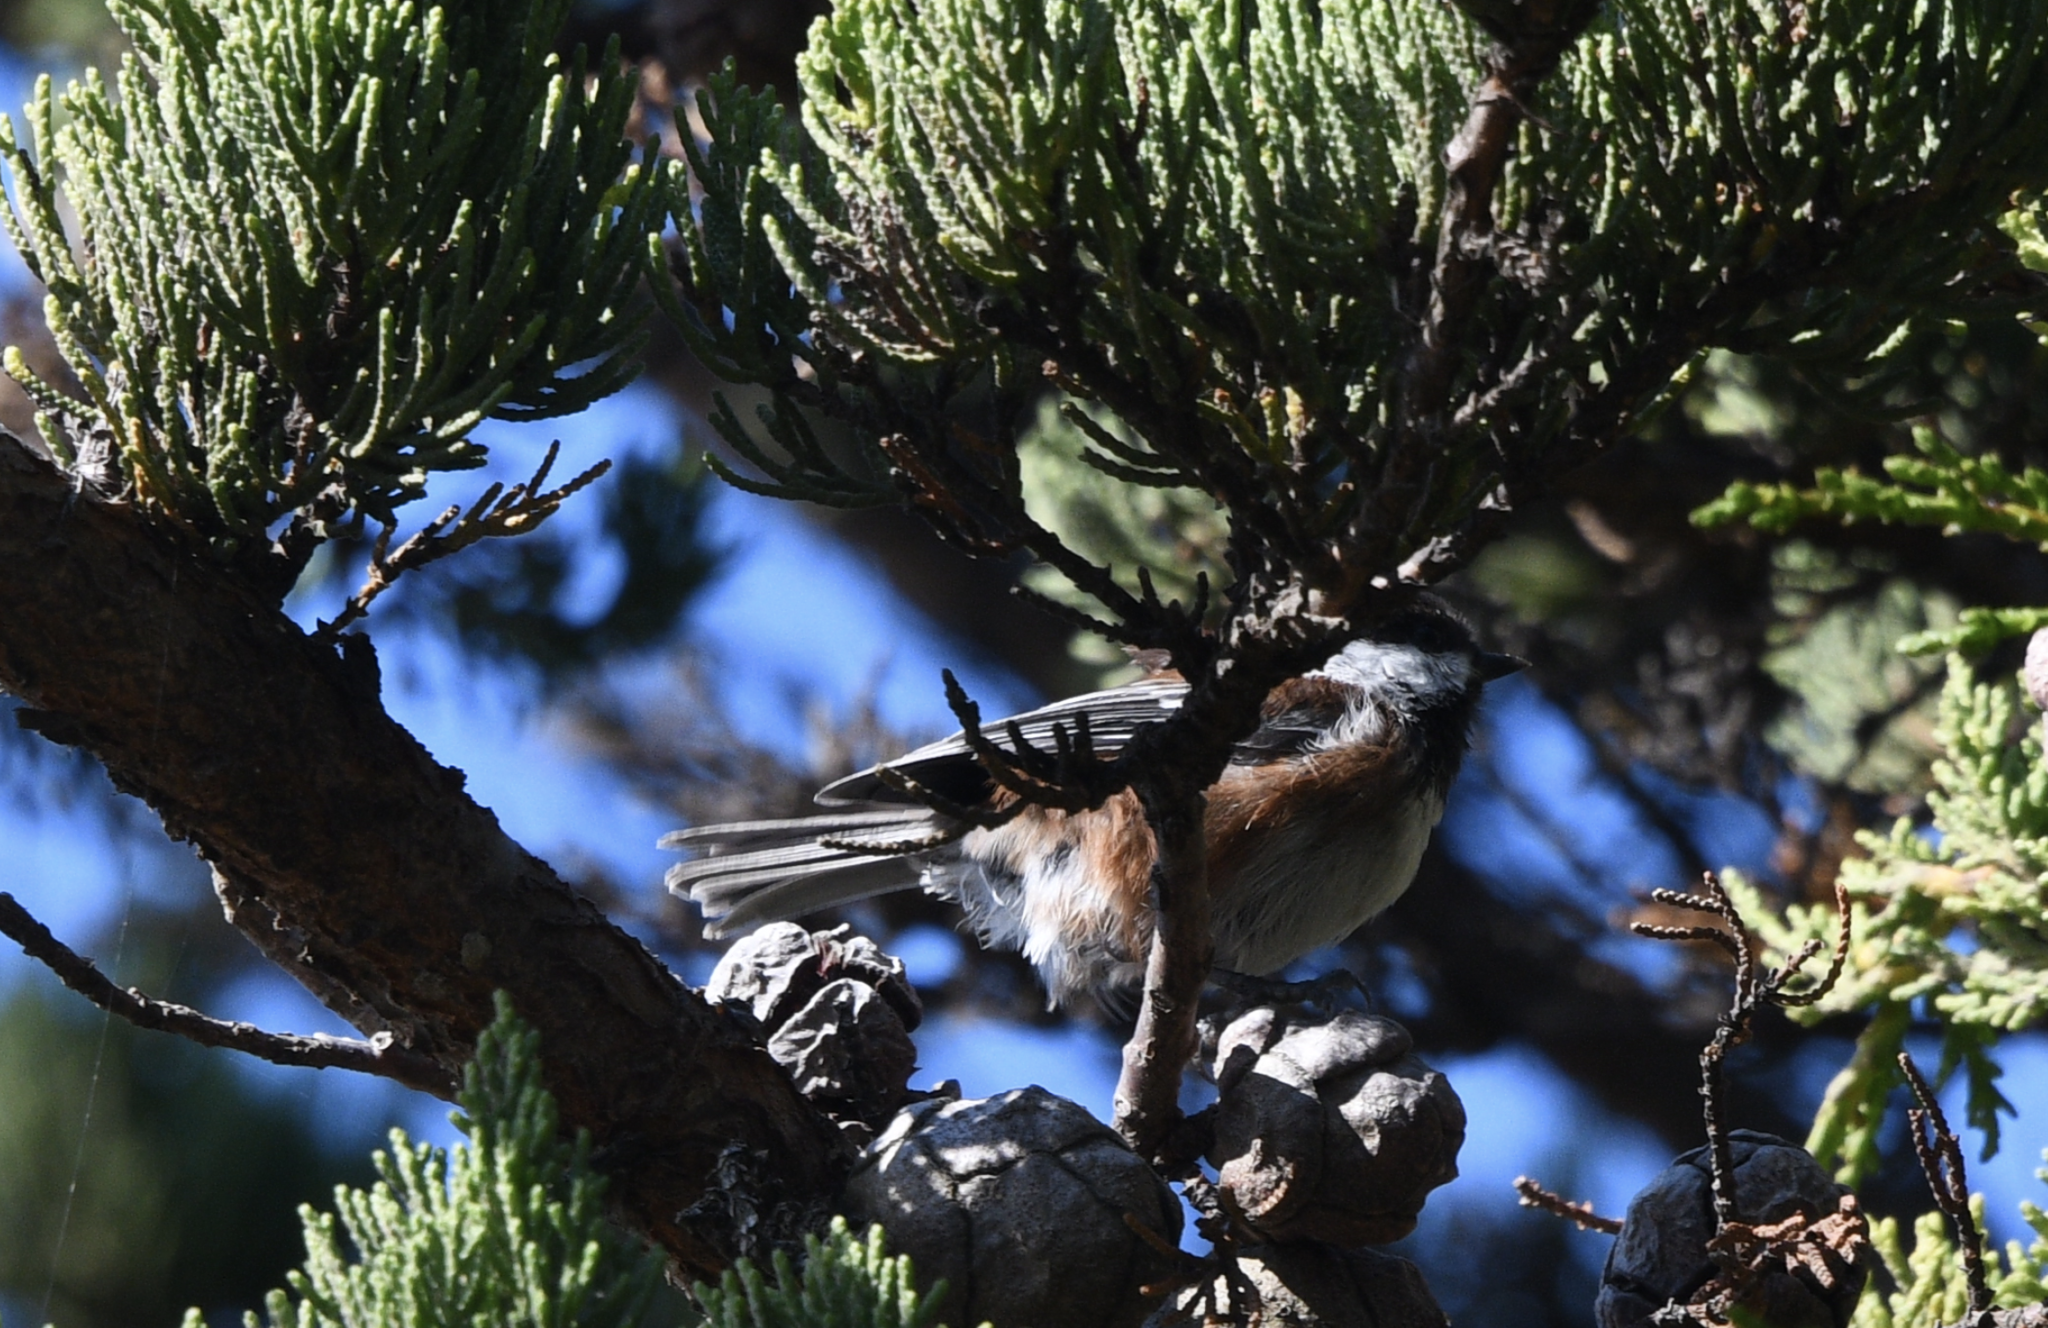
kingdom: Animalia
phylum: Chordata
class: Aves
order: Passeriformes
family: Paridae
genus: Poecile
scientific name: Poecile rufescens
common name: Chestnut-backed chickadee
